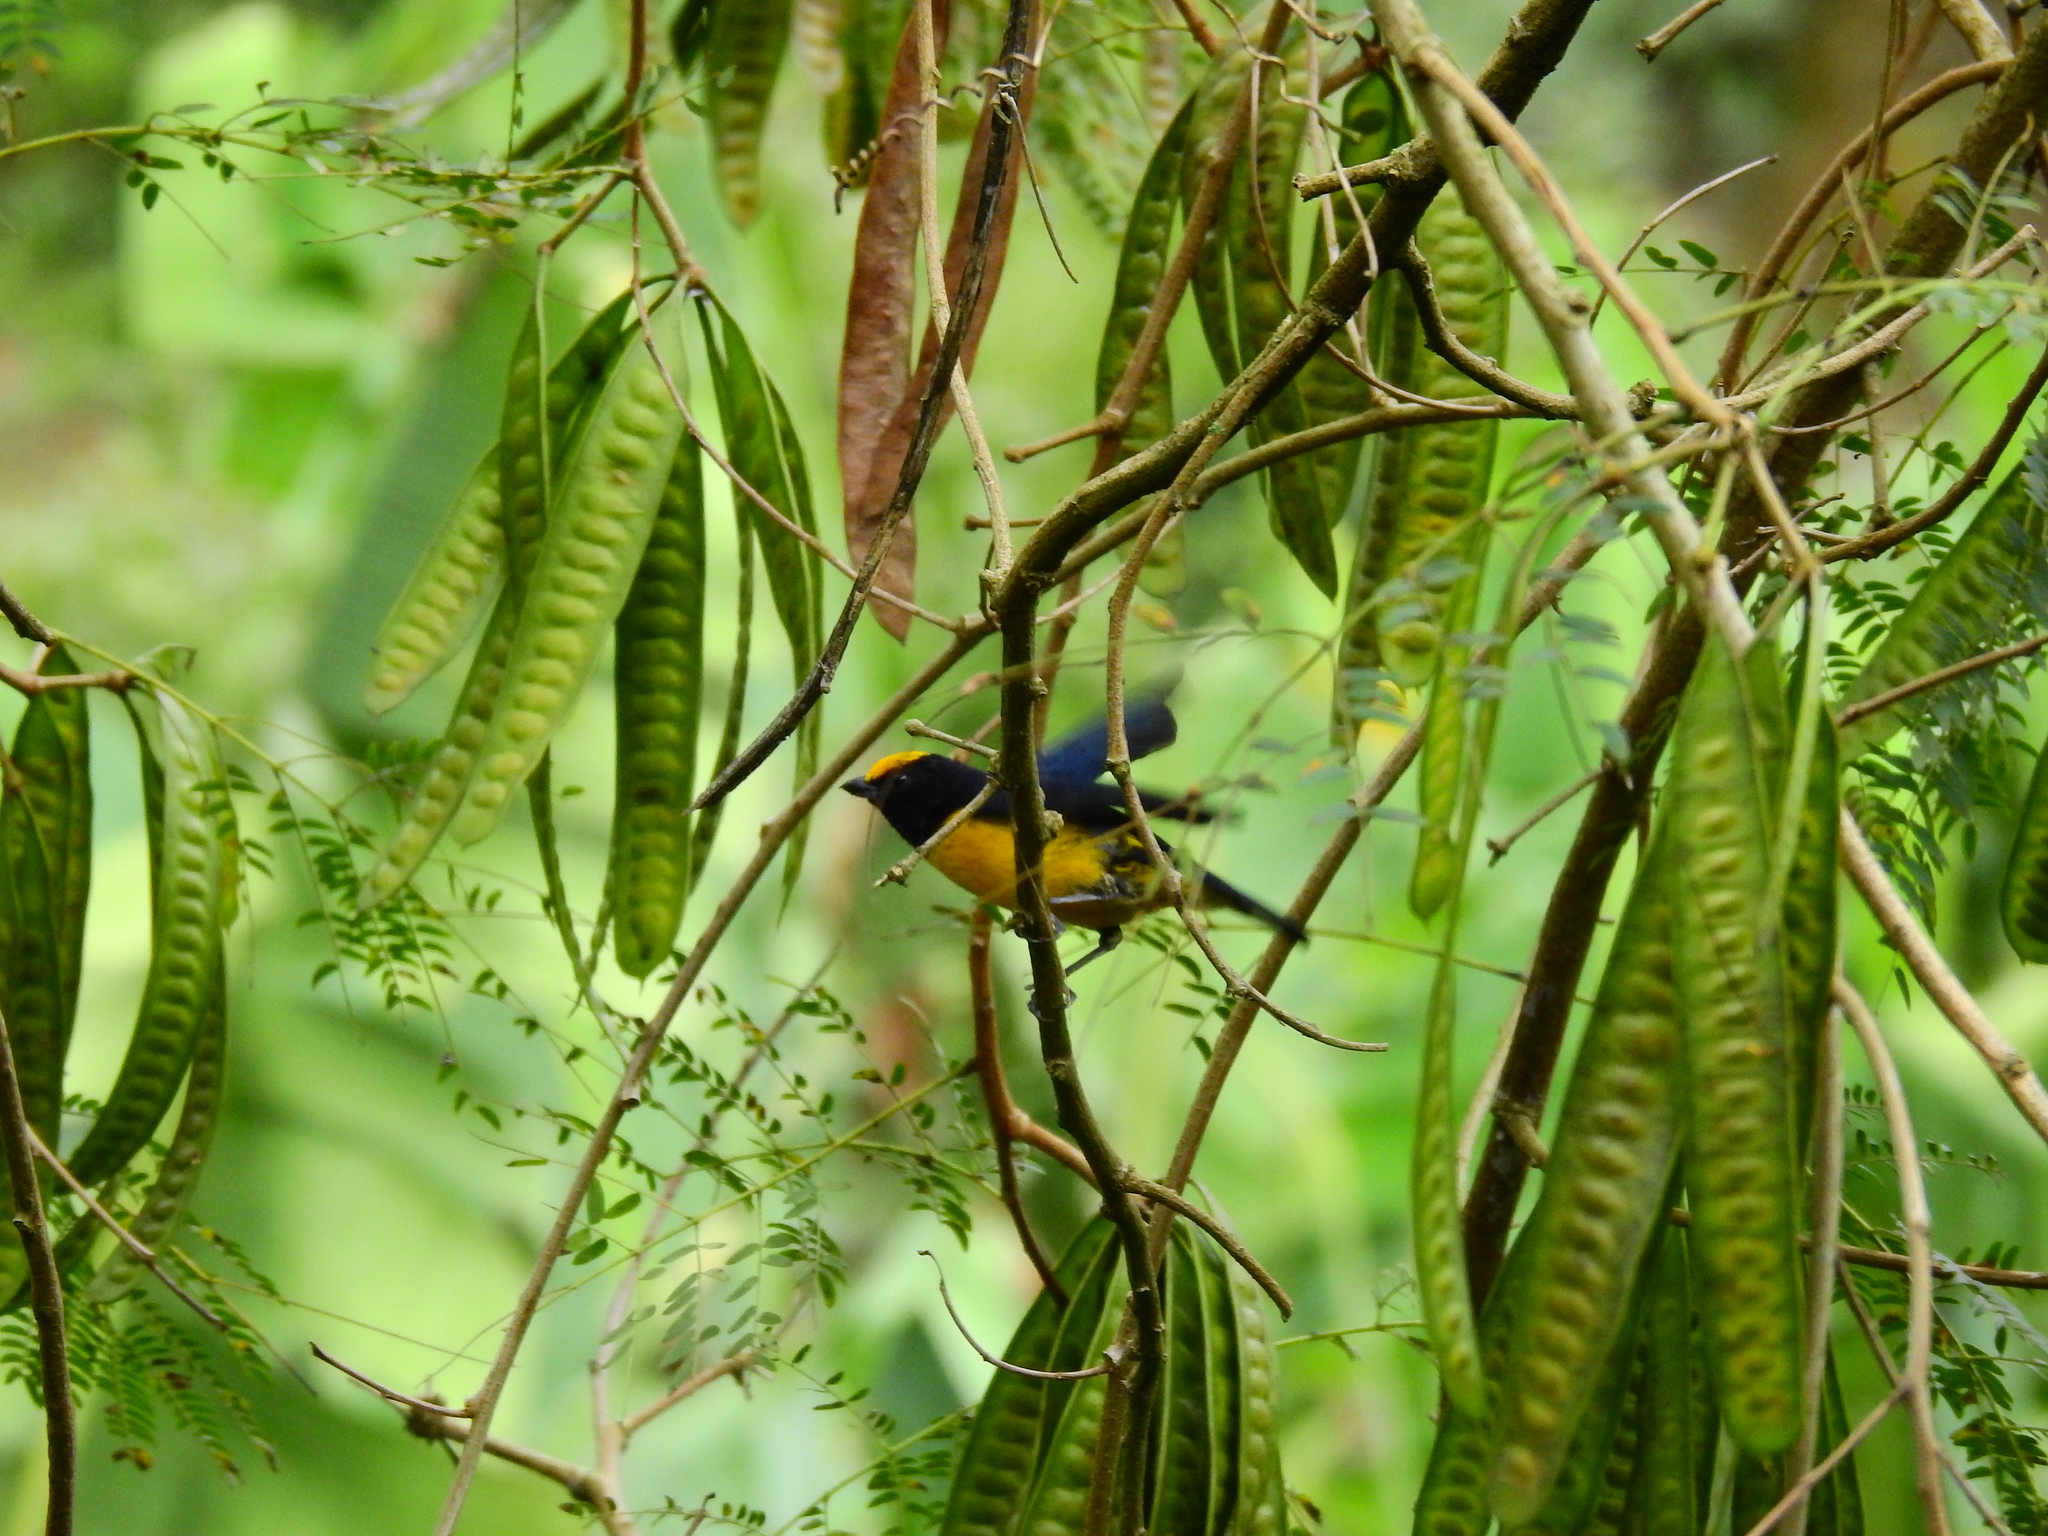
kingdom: Animalia
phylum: Chordata
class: Aves
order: Passeriformes
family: Fringillidae
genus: Euphonia
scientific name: Euphonia xanthogaster
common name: Orange-bellied euphonia
